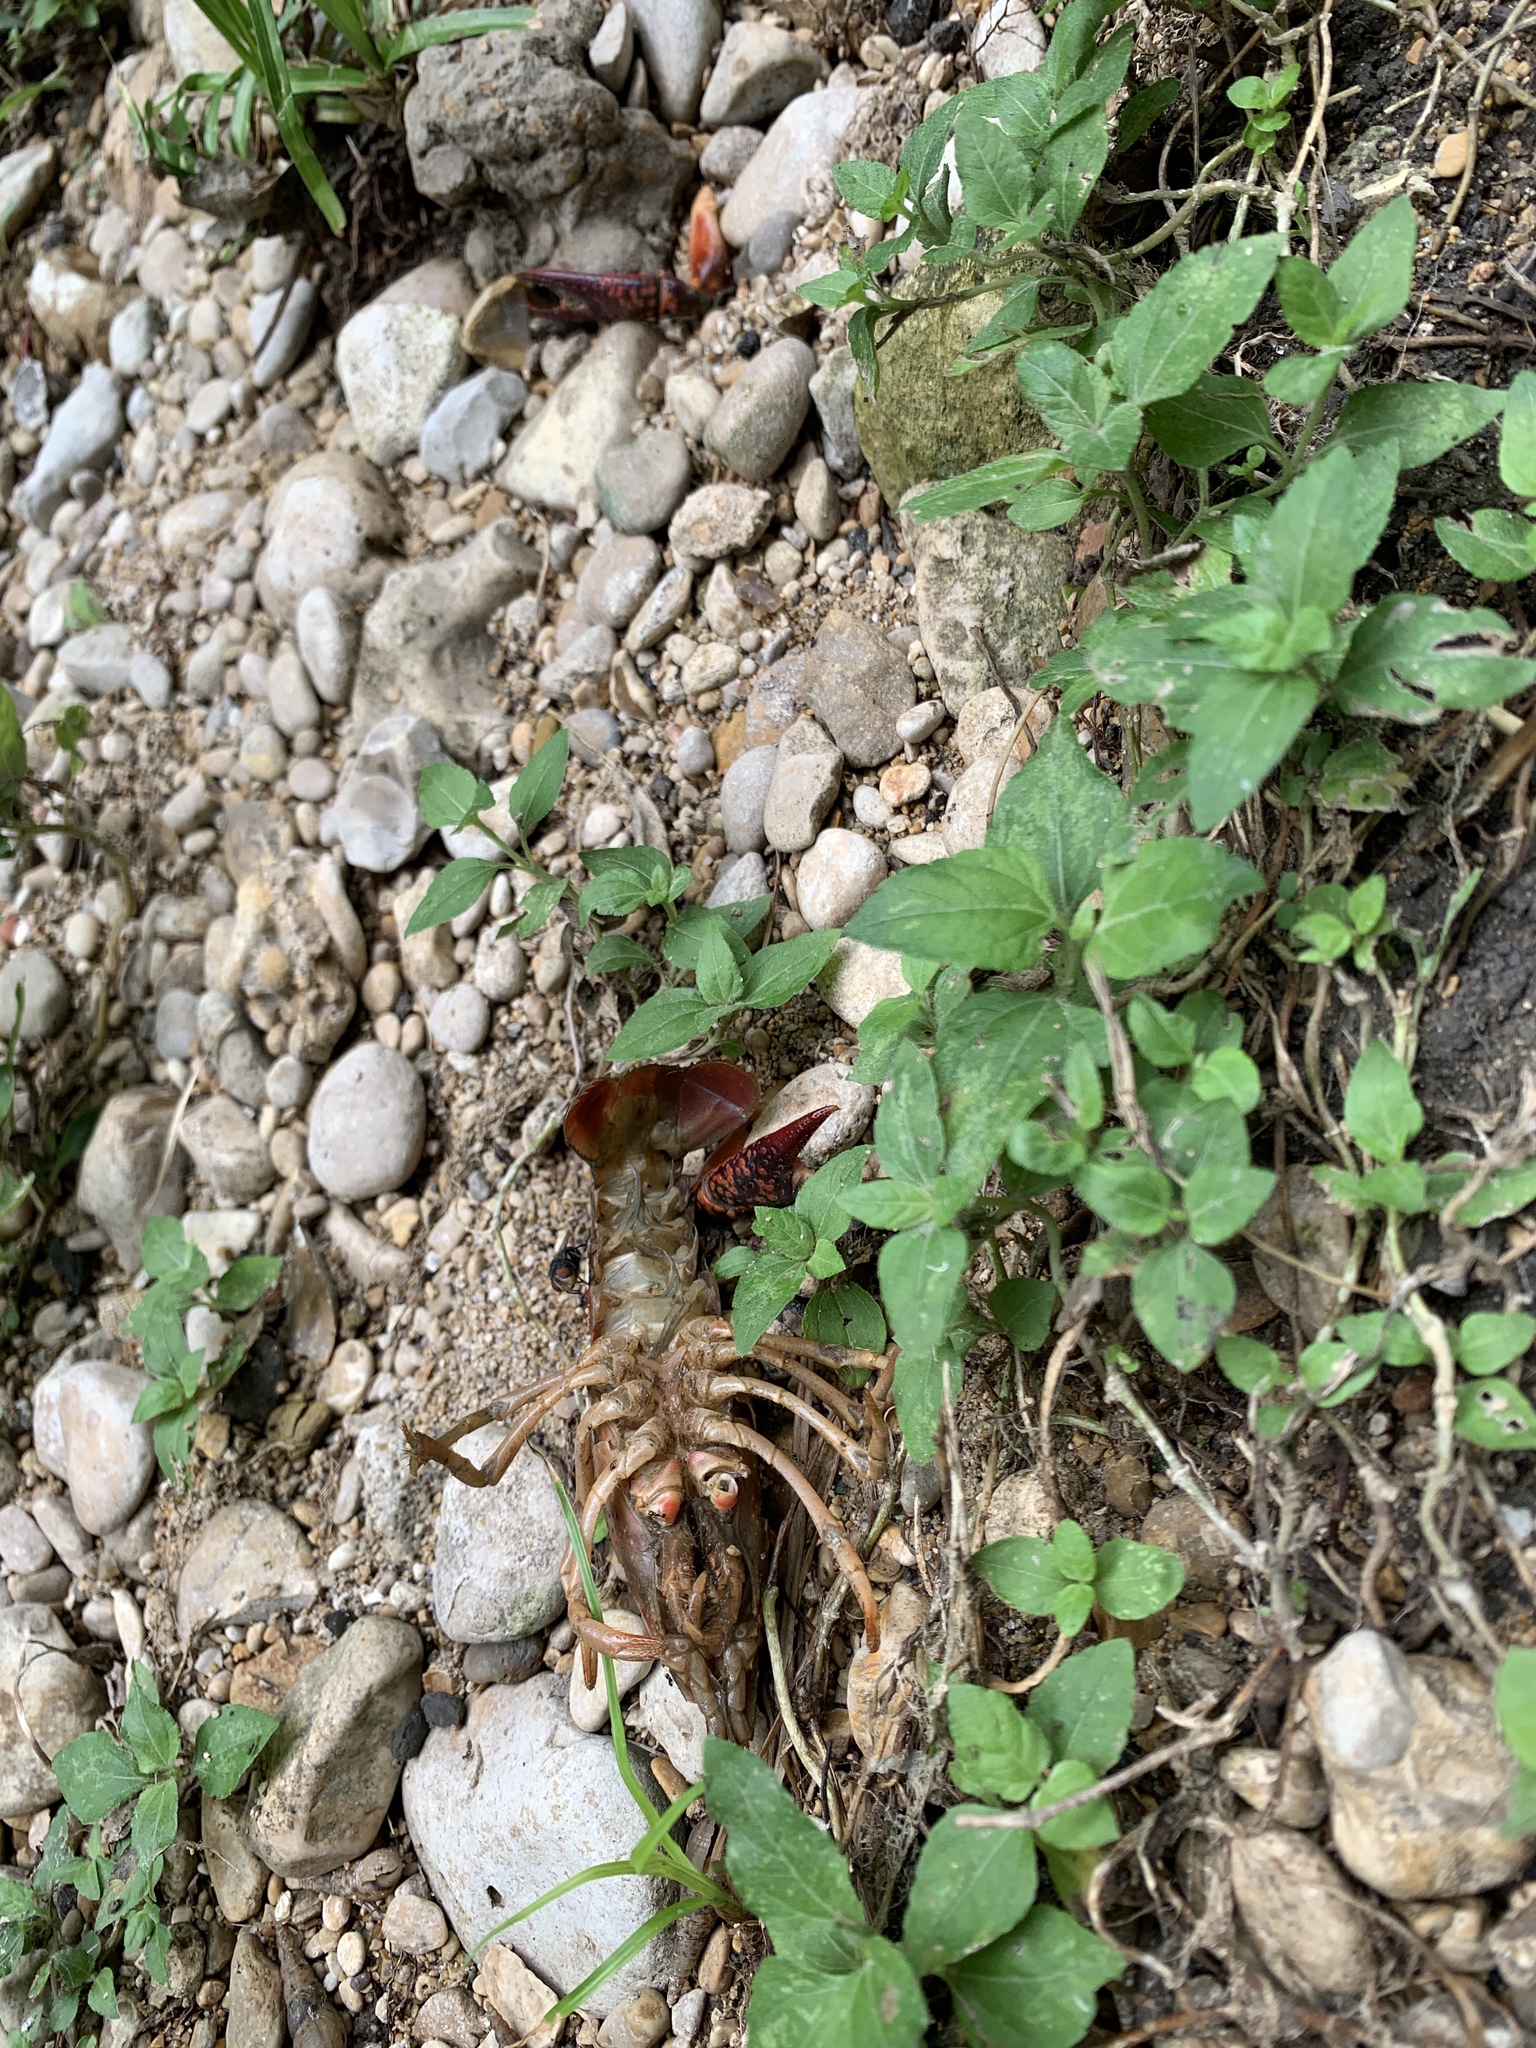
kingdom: Animalia
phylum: Arthropoda
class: Malacostraca
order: Decapoda
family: Cambaridae
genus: Procambarus
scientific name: Procambarus clarkii
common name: Red swamp crayfish
